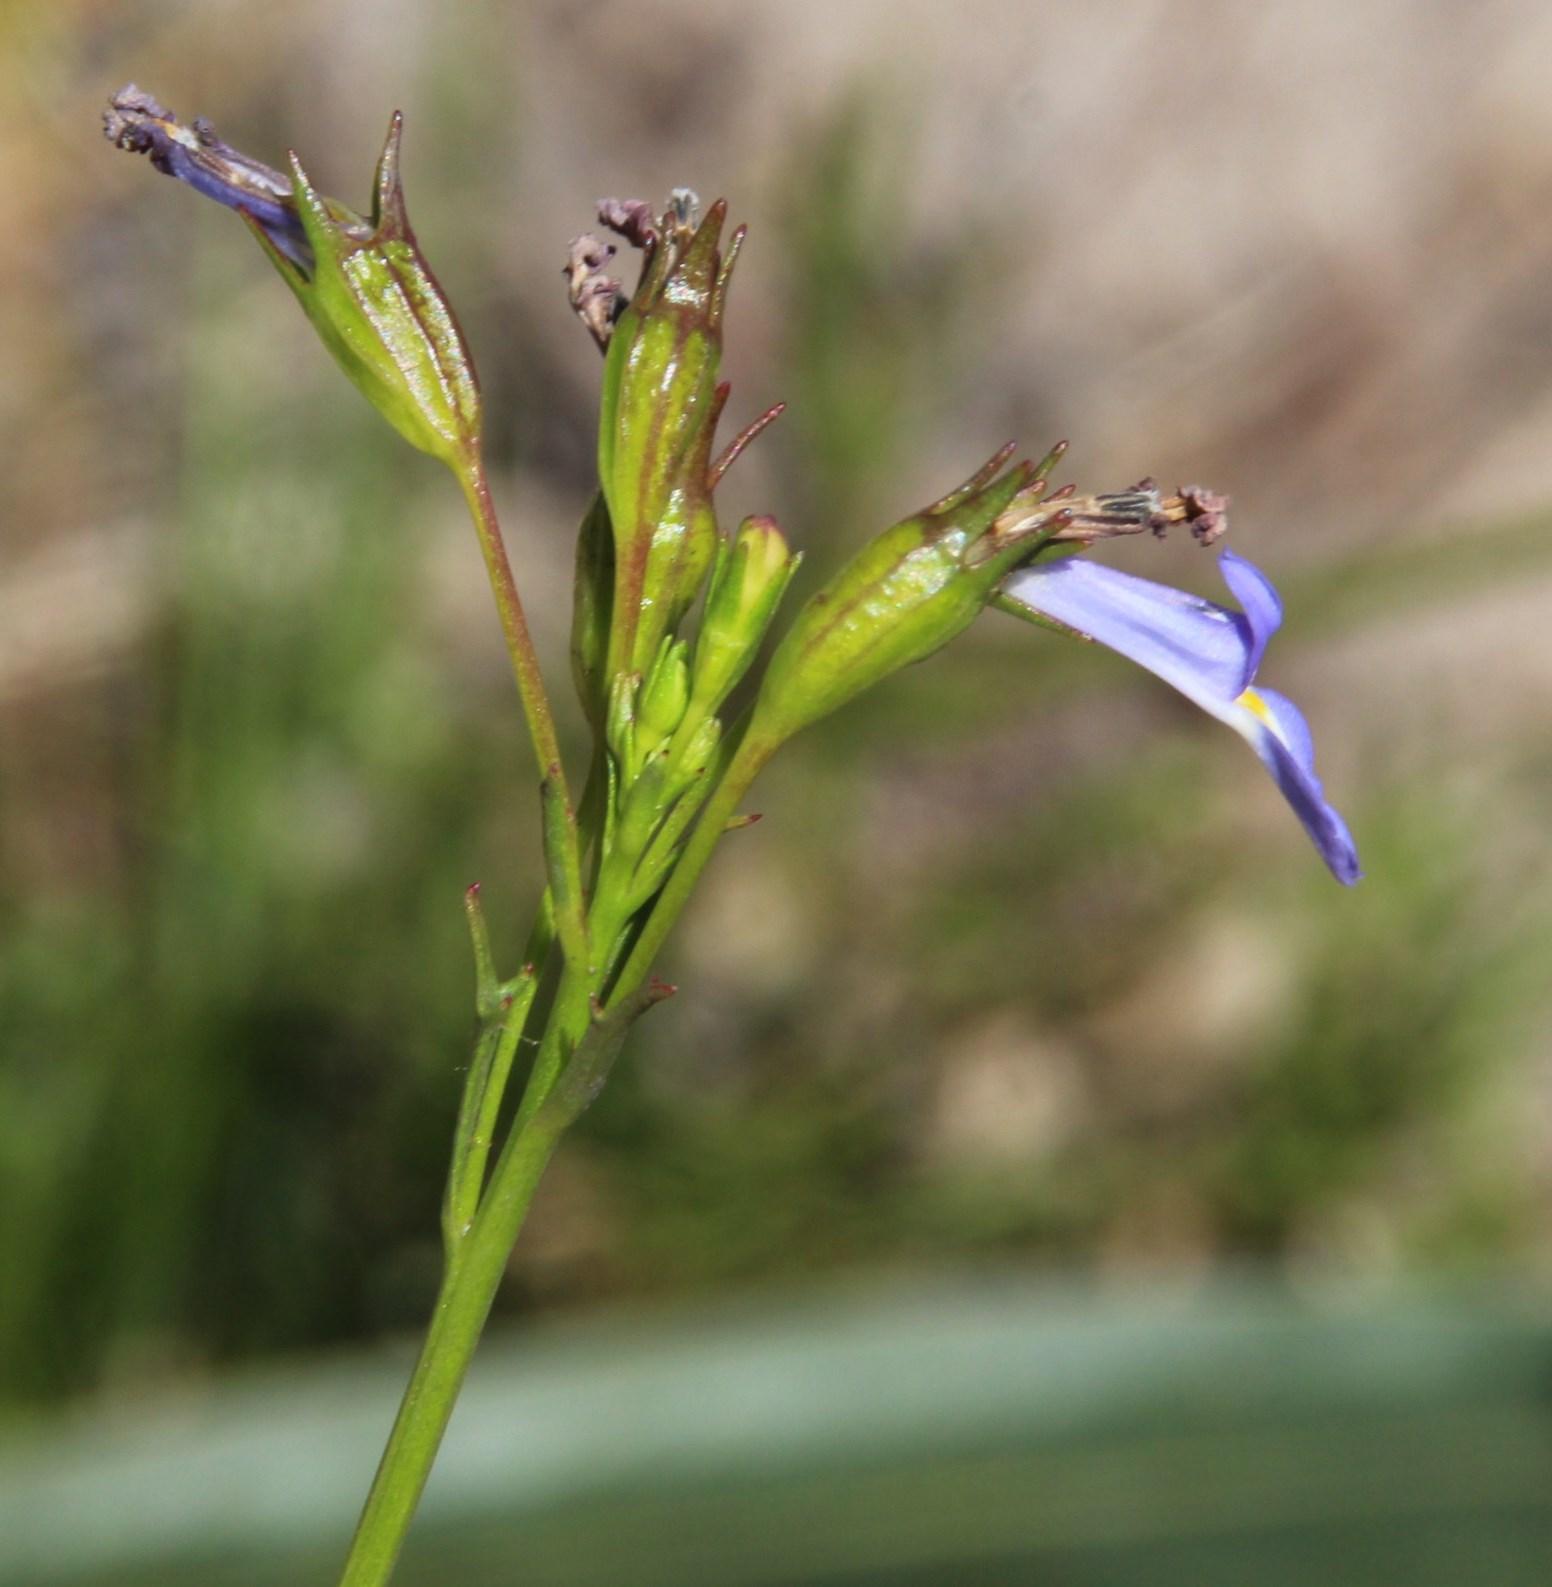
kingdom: Plantae
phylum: Tracheophyta
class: Magnoliopsida
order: Asterales
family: Campanulaceae
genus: Lobelia
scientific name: Lobelia comosa
